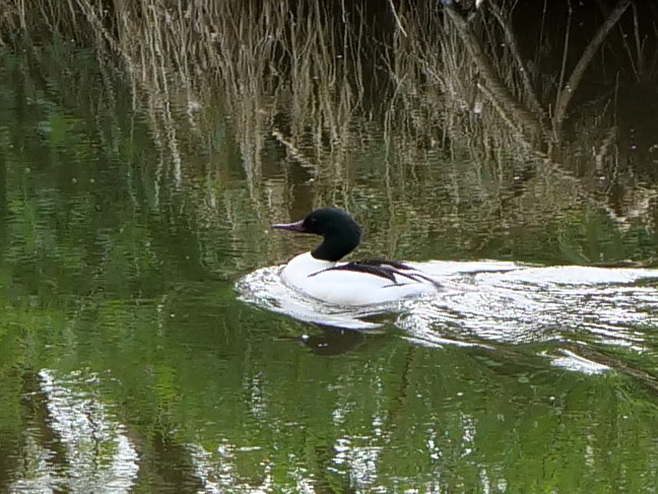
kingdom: Animalia
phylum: Chordata
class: Aves
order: Anseriformes
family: Anatidae
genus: Mergus
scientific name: Mergus merganser
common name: Common merganser
